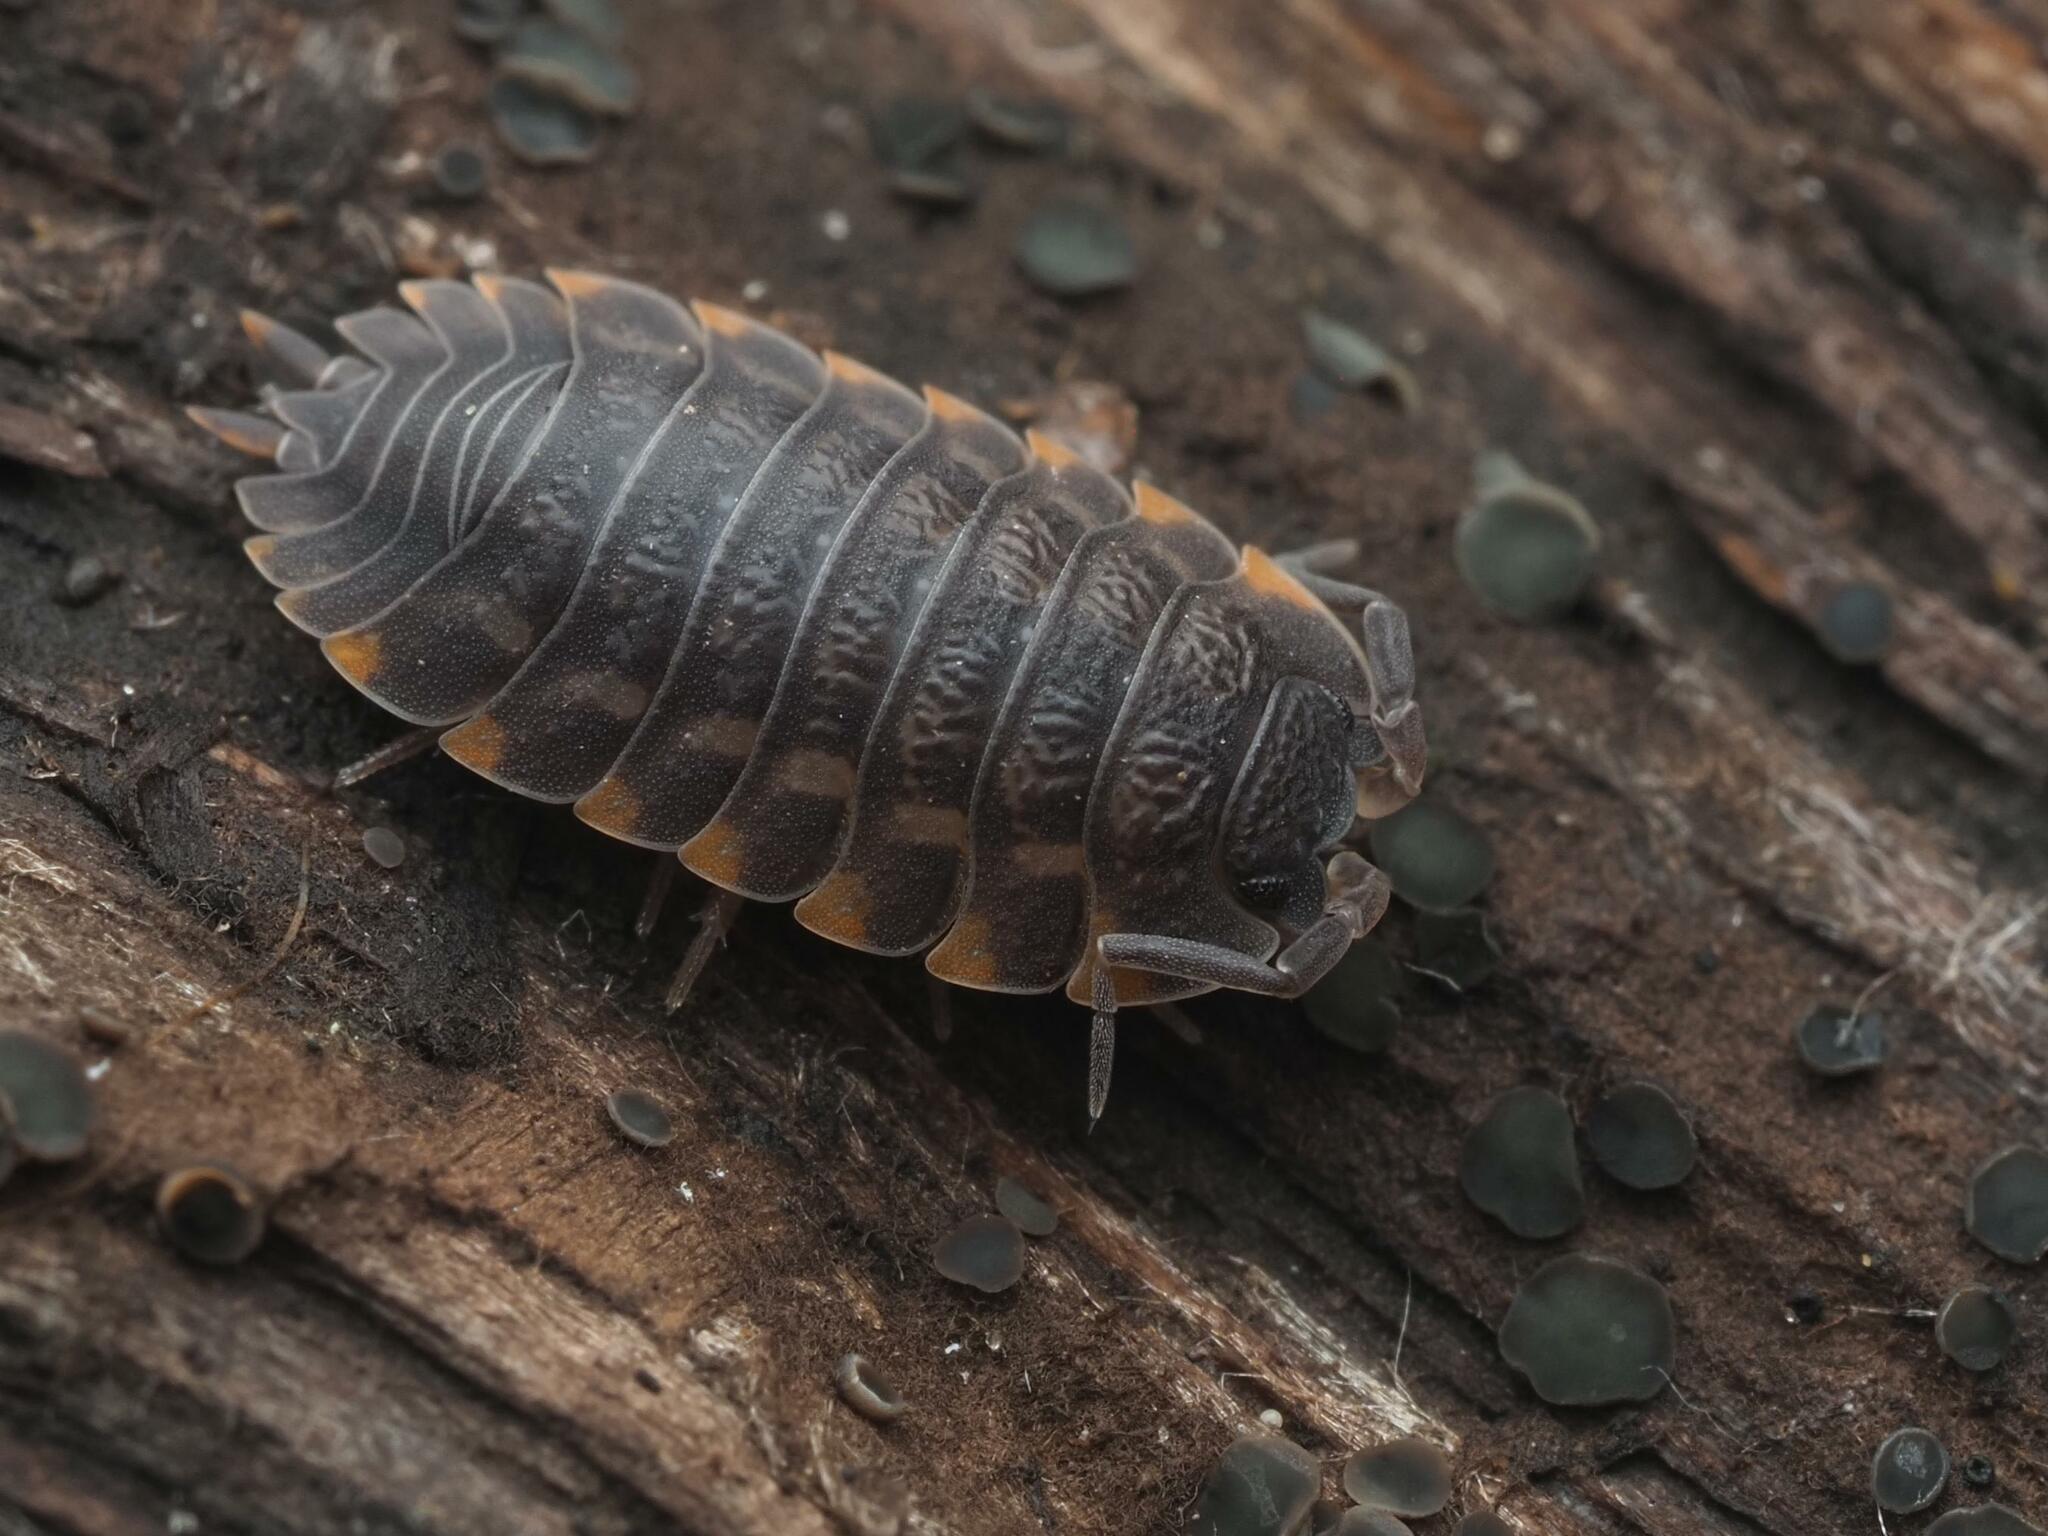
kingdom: Animalia
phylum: Arthropoda
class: Malacostraca
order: Isopoda
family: Trachelipodidae
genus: Trachelipus
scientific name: Trachelipus ratzeburgii
